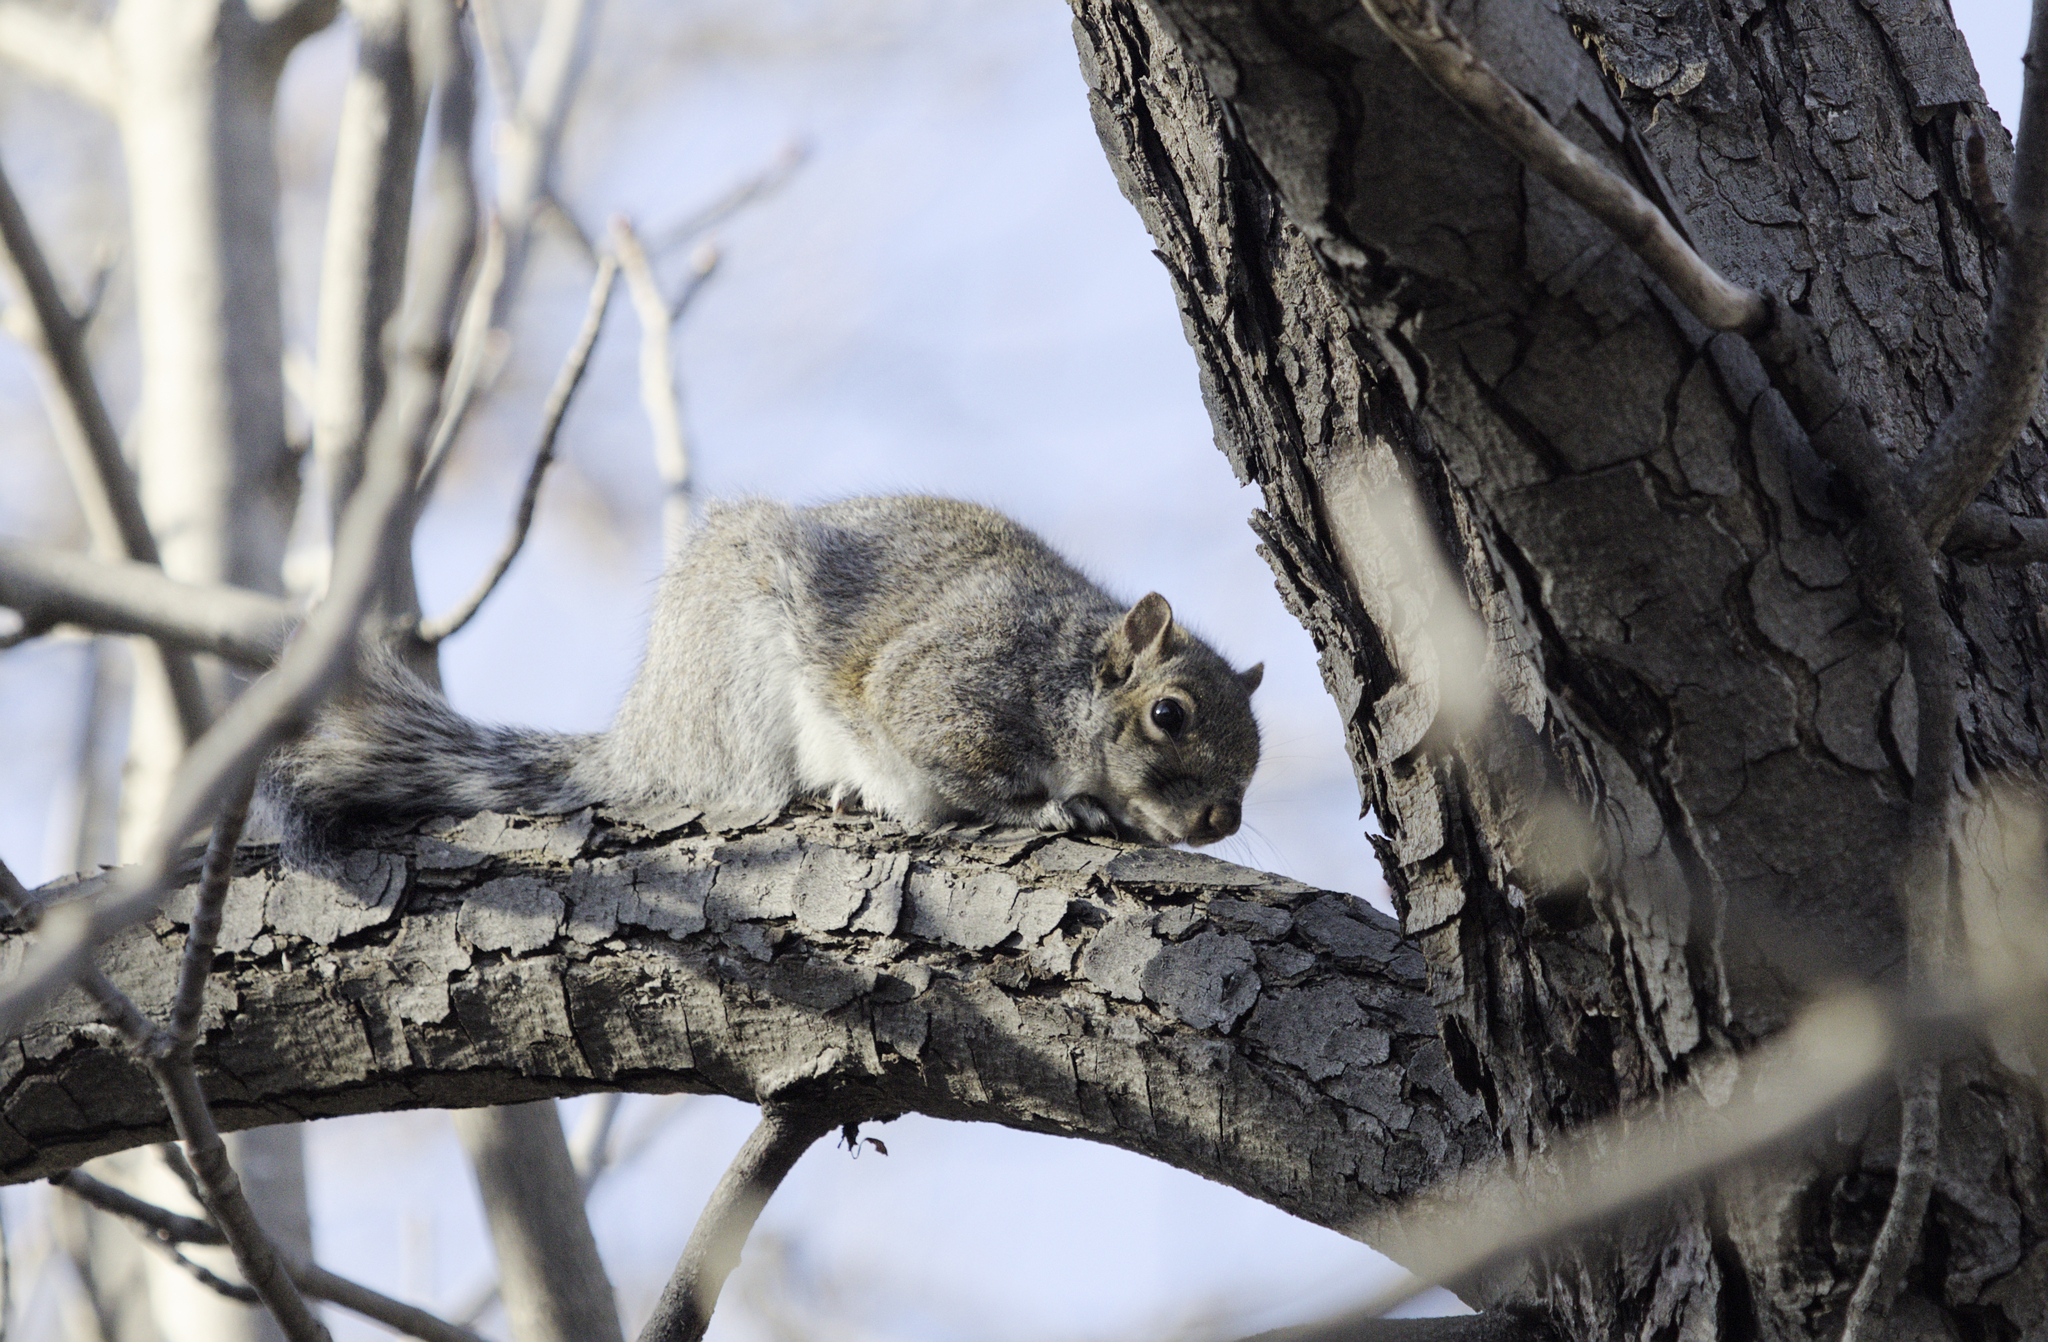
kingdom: Animalia
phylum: Chordata
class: Mammalia
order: Rodentia
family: Sciuridae
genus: Sciurus
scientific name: Sciurus carolinensis
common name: Eastern gray squirrel
